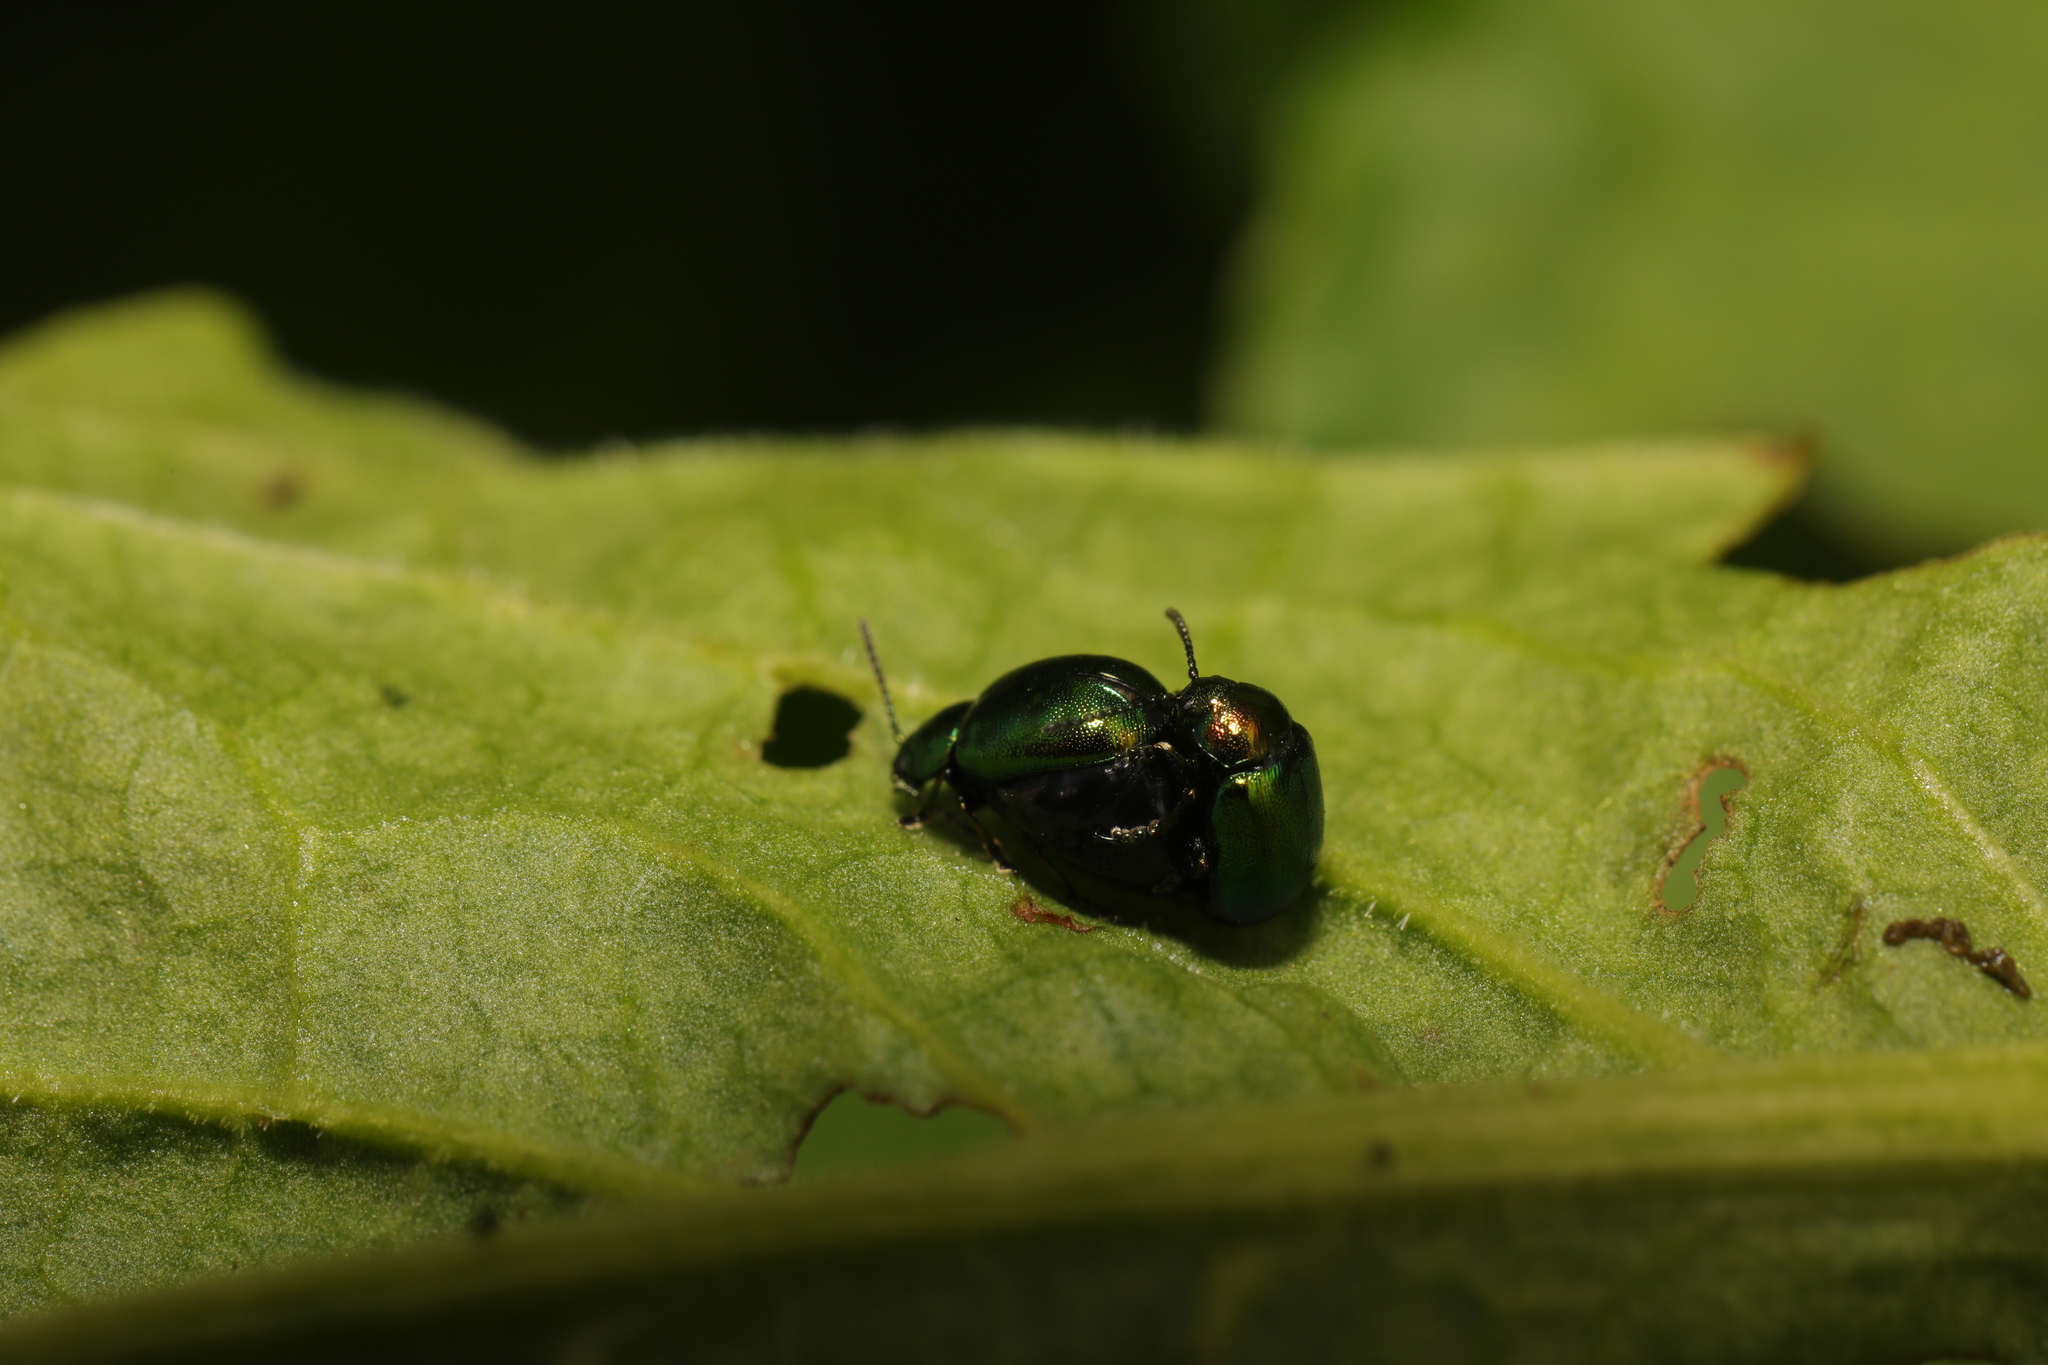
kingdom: Animalia
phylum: Arthropoda
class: Insecta
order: Coleoptera
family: Chrysomelidae
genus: Gastrophysa
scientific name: Gastrophysa viridula
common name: Green dock beetle
